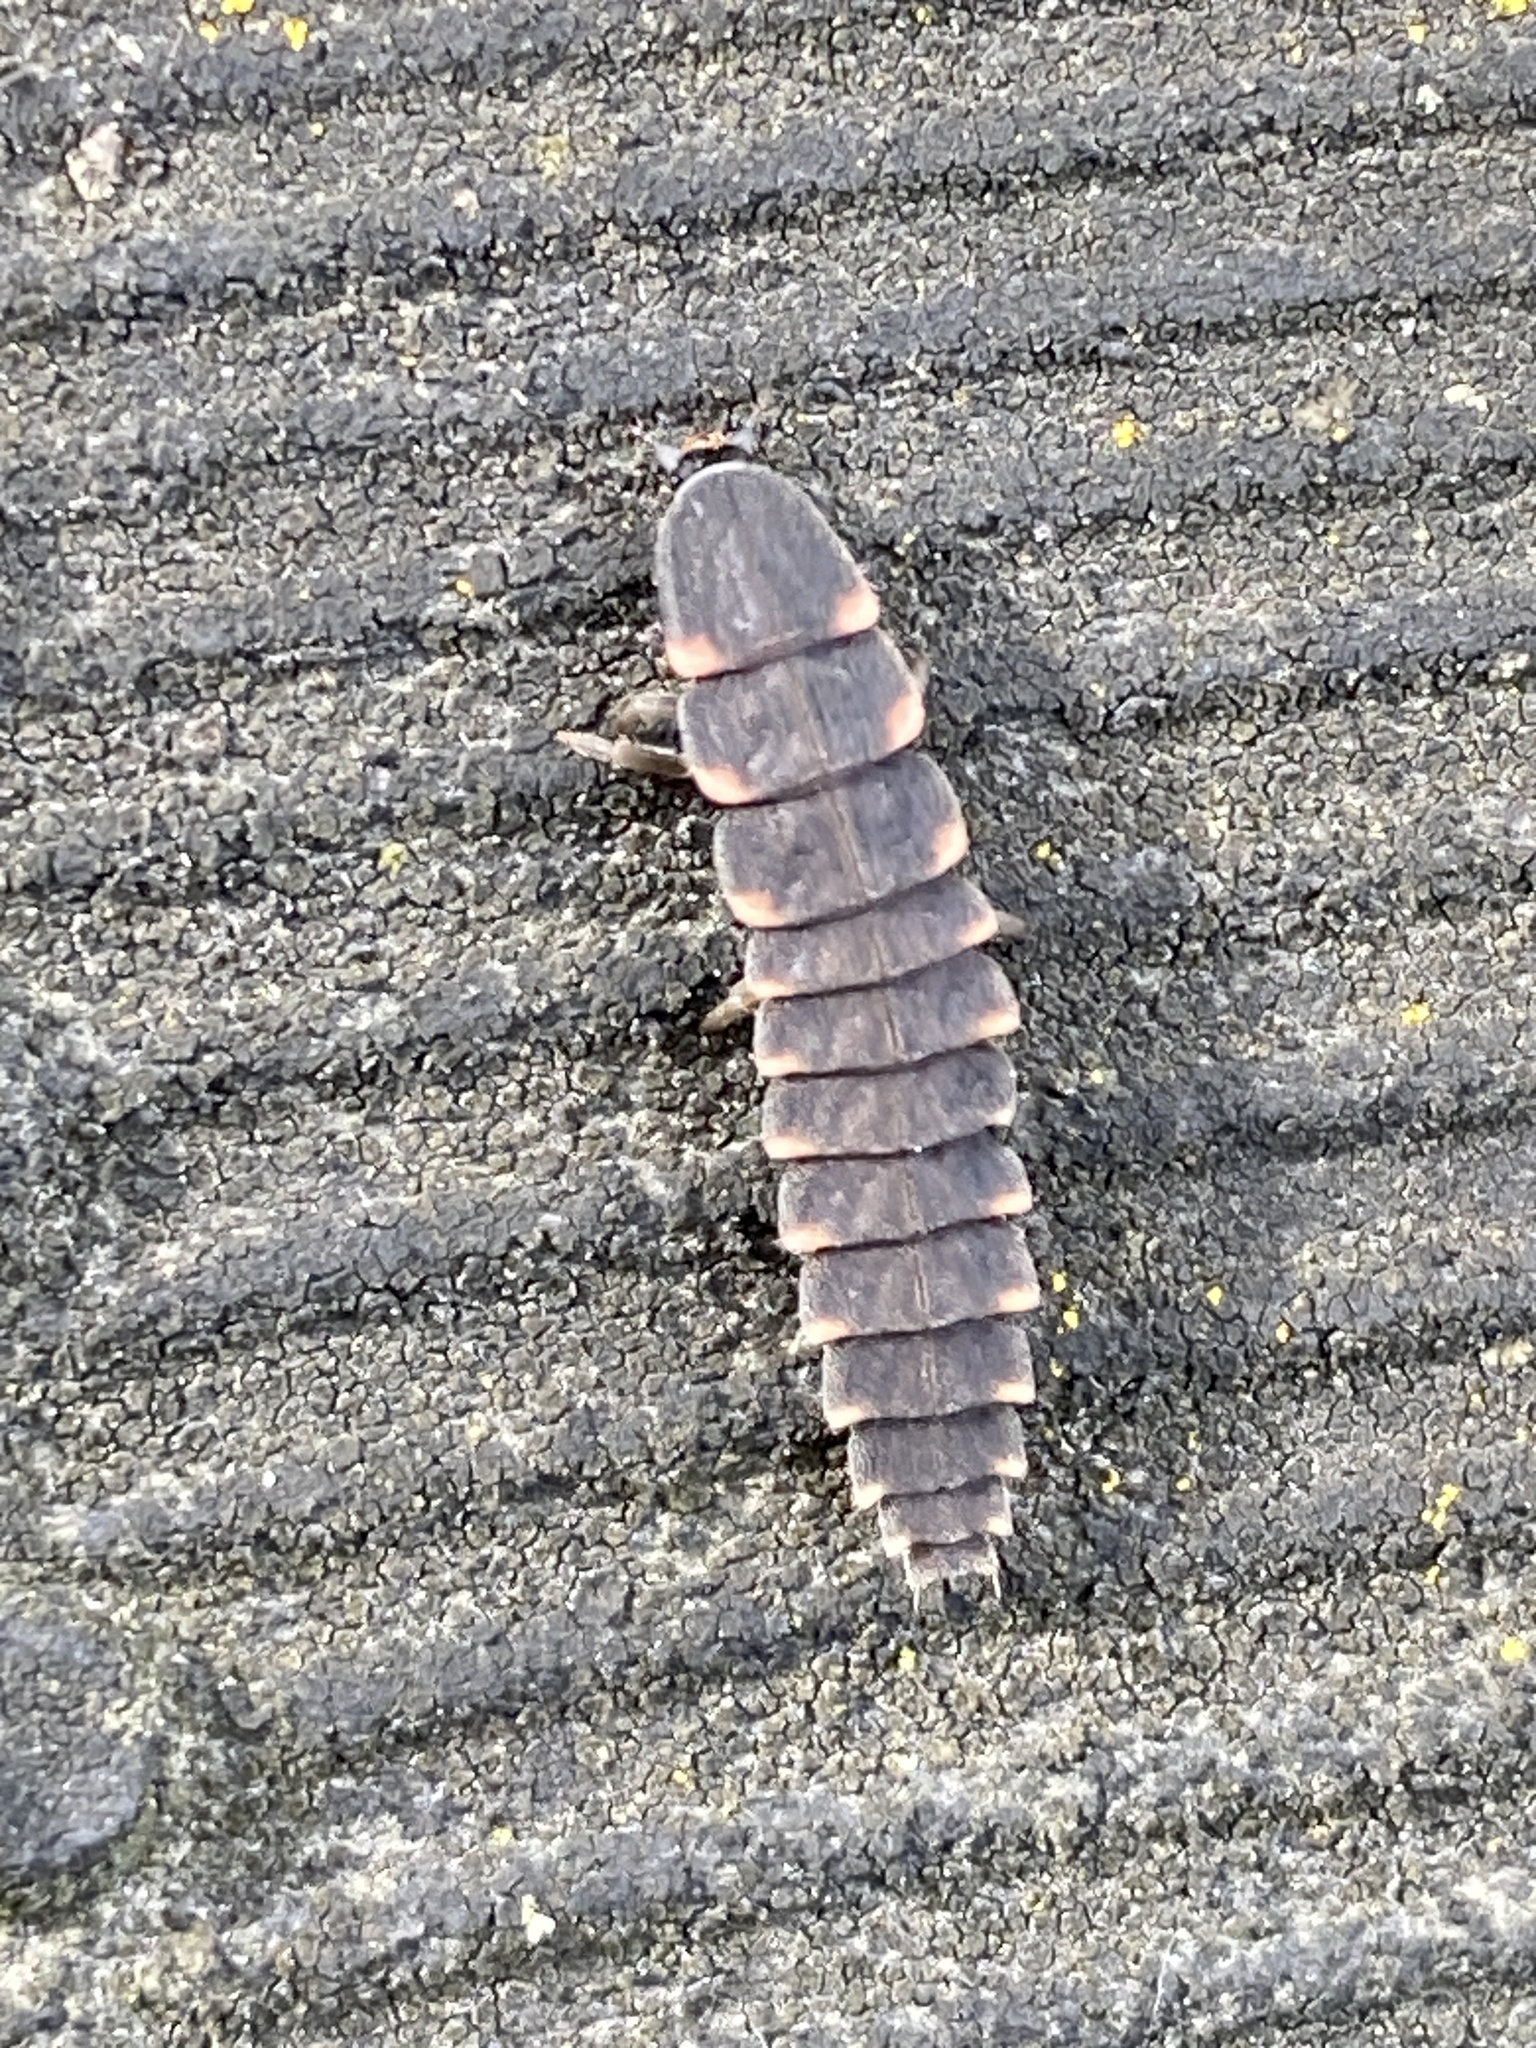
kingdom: Animalia
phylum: Arthropoda
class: Insecta
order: Coleoptera
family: Lampyridae
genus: Lampyris
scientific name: Lampyris noctiluca
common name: Glow-worm
